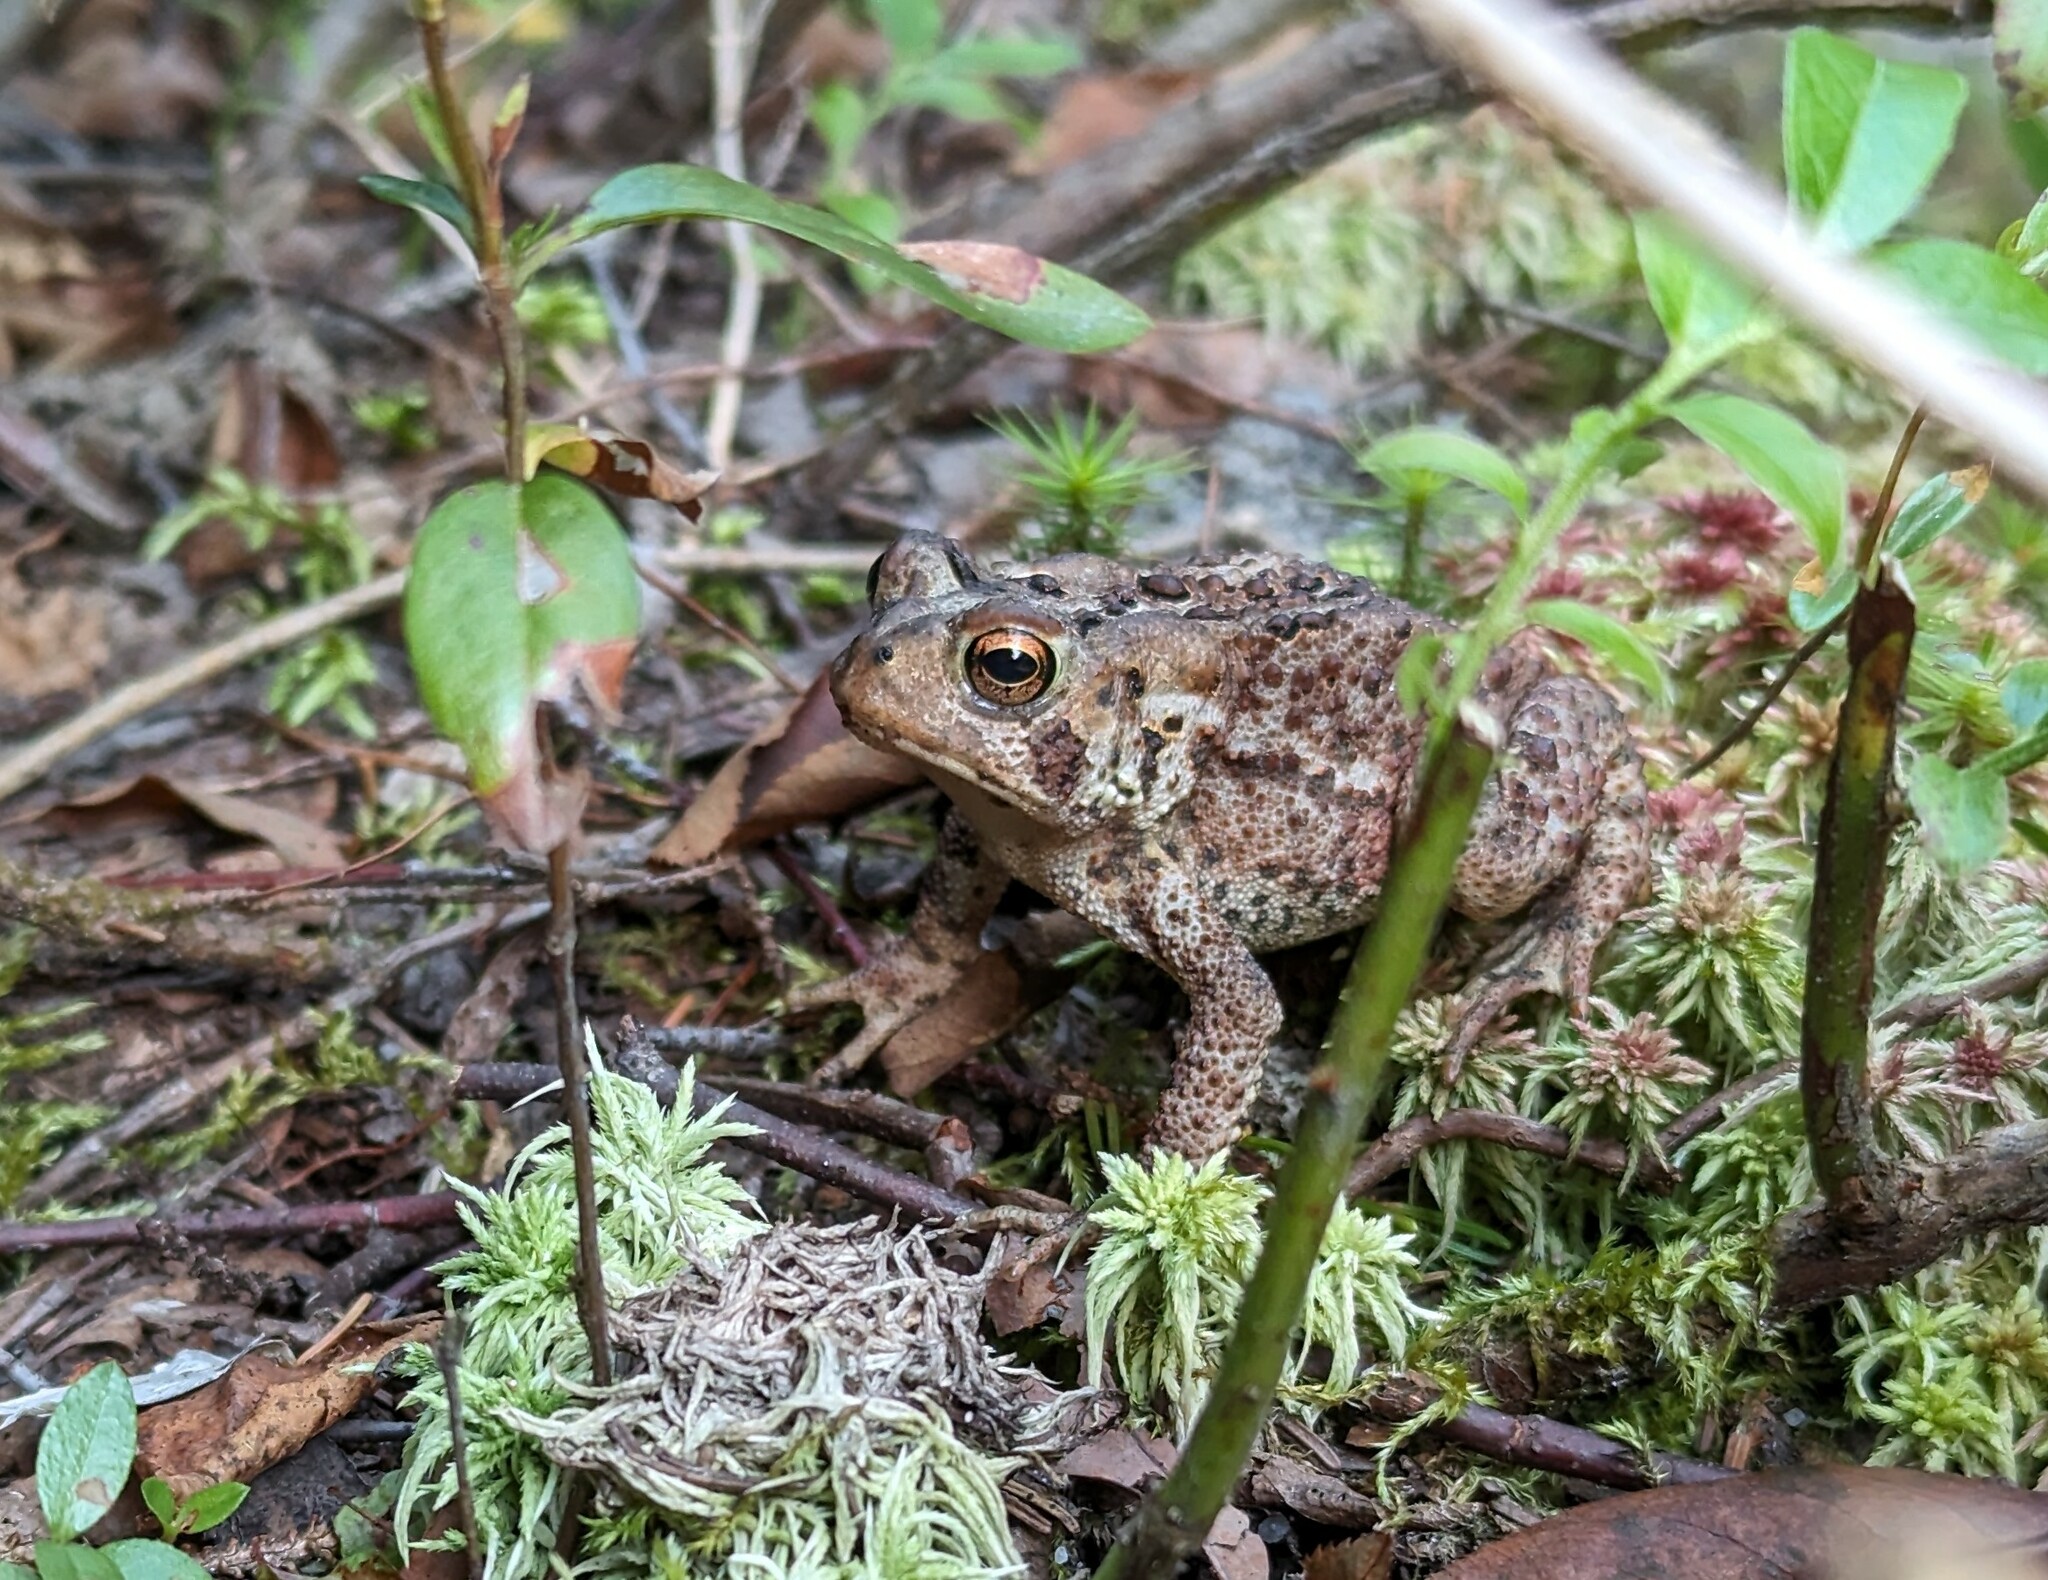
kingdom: Animalia
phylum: Chordata
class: Amphibia
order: Anura
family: Bufonidae
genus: Anaxyrus
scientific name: Anaxyrus americanus
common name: American toad
